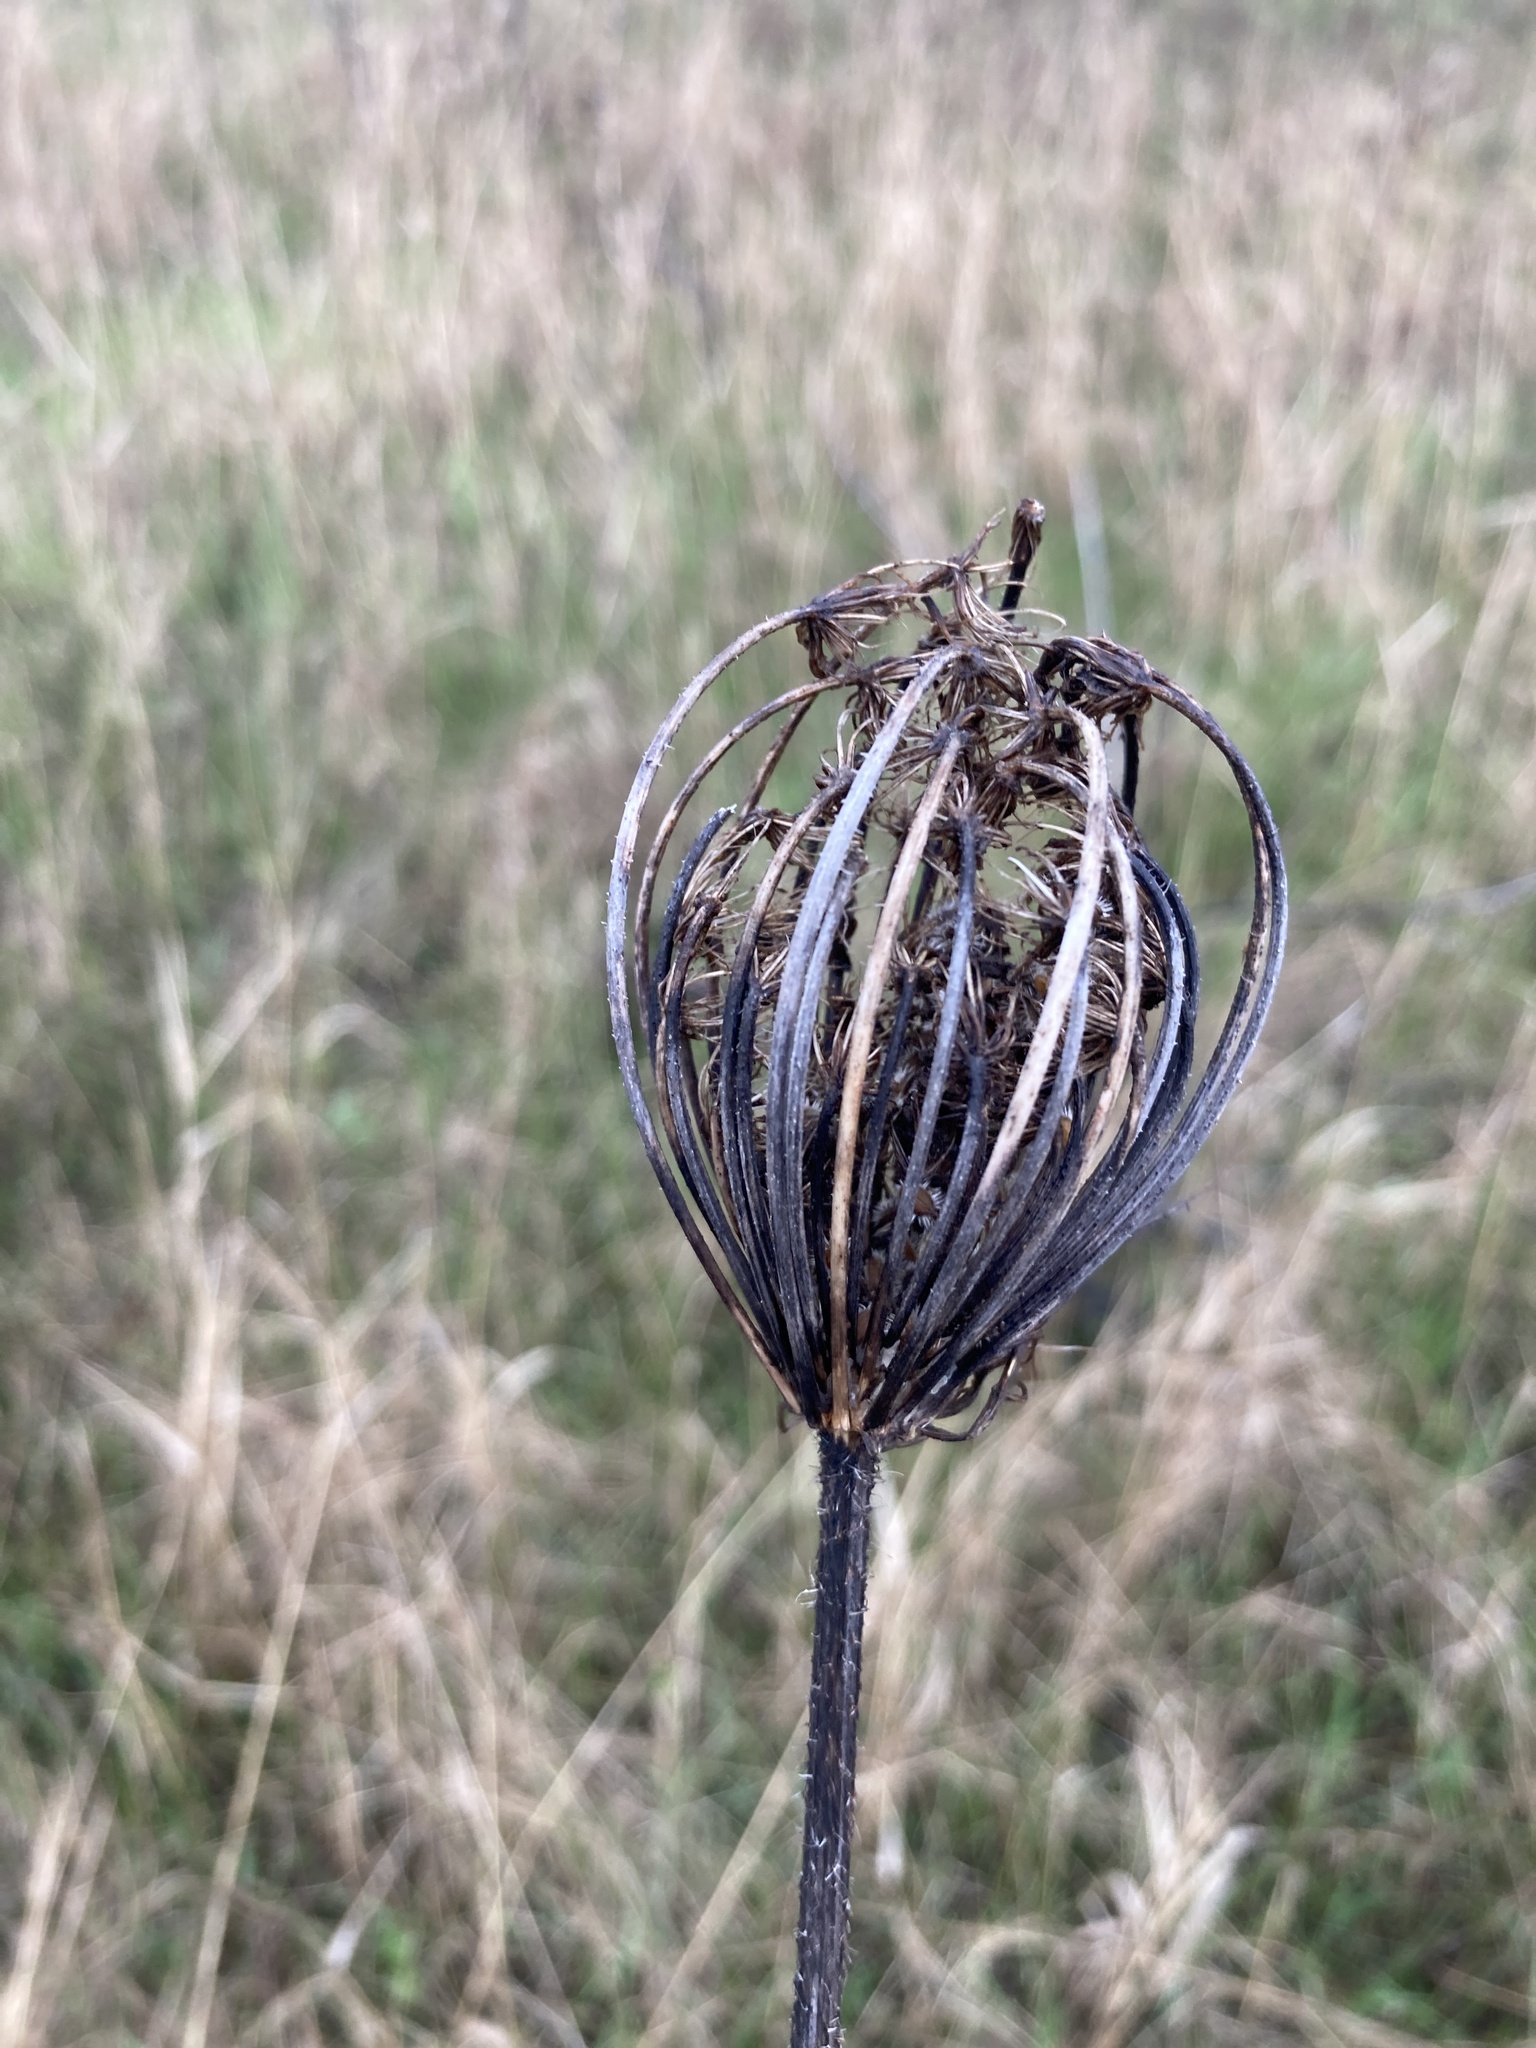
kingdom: Plantae
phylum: Tracheophyta
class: Magnoliopsida
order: Apiales
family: Apiaceae
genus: Daucus
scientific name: Daucus carota
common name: Wild carrot
